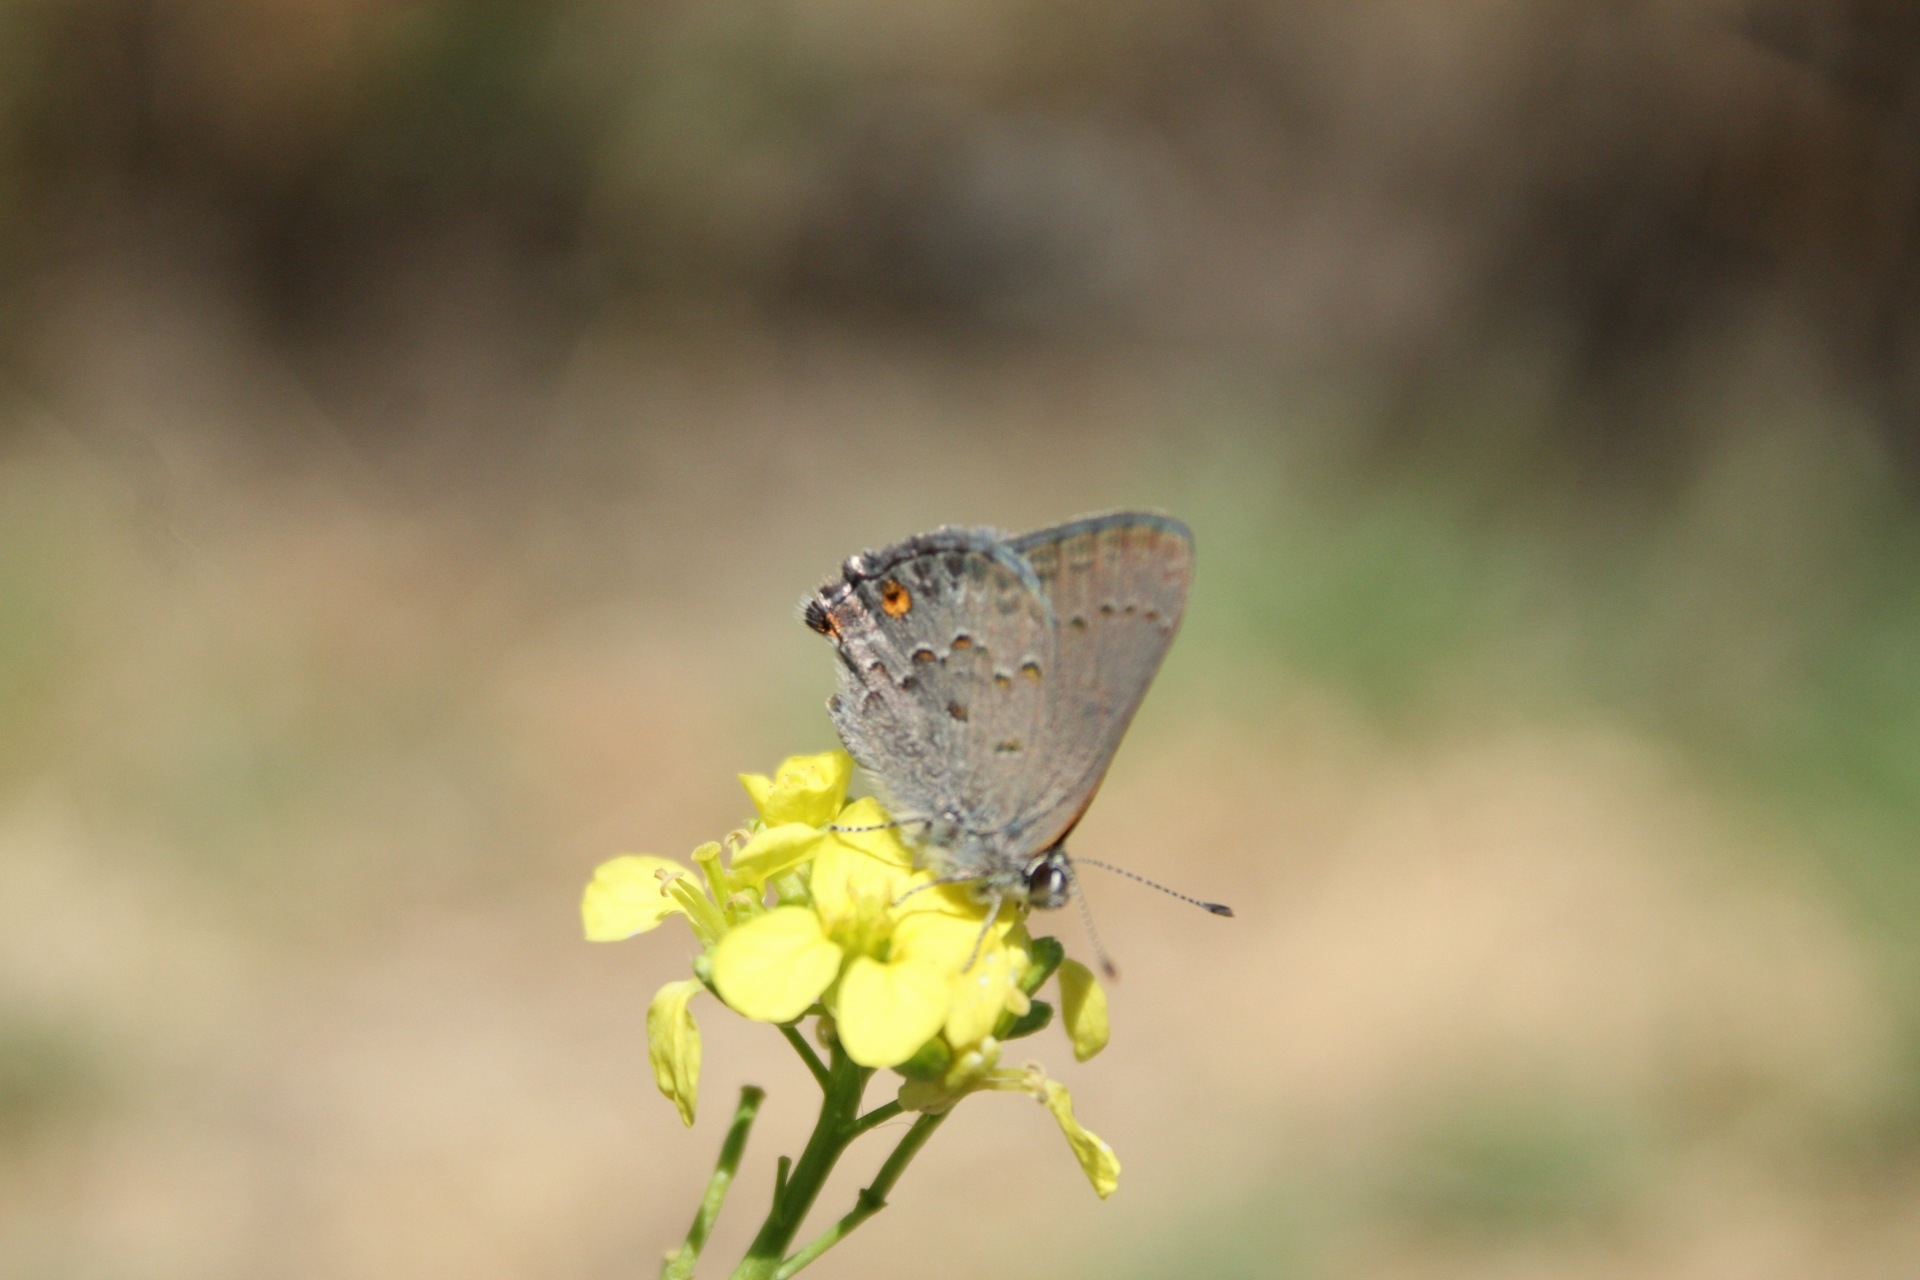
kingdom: Animalia
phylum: Arthropoda
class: Insecta
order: Lepidoptera
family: Lycaenidae
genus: Strymon
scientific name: Strymon eurytulus
